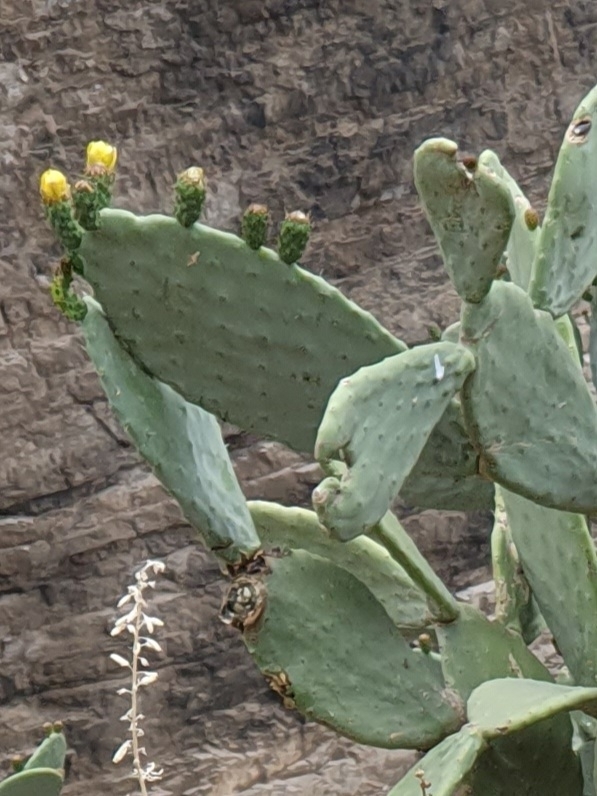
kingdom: Plantae
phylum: Tracheophyta
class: Magnoliopsida
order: Caryophyllales
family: Cactaceae
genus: Opuntia
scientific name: Opuntia ficus-indica
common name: Barbary fig
